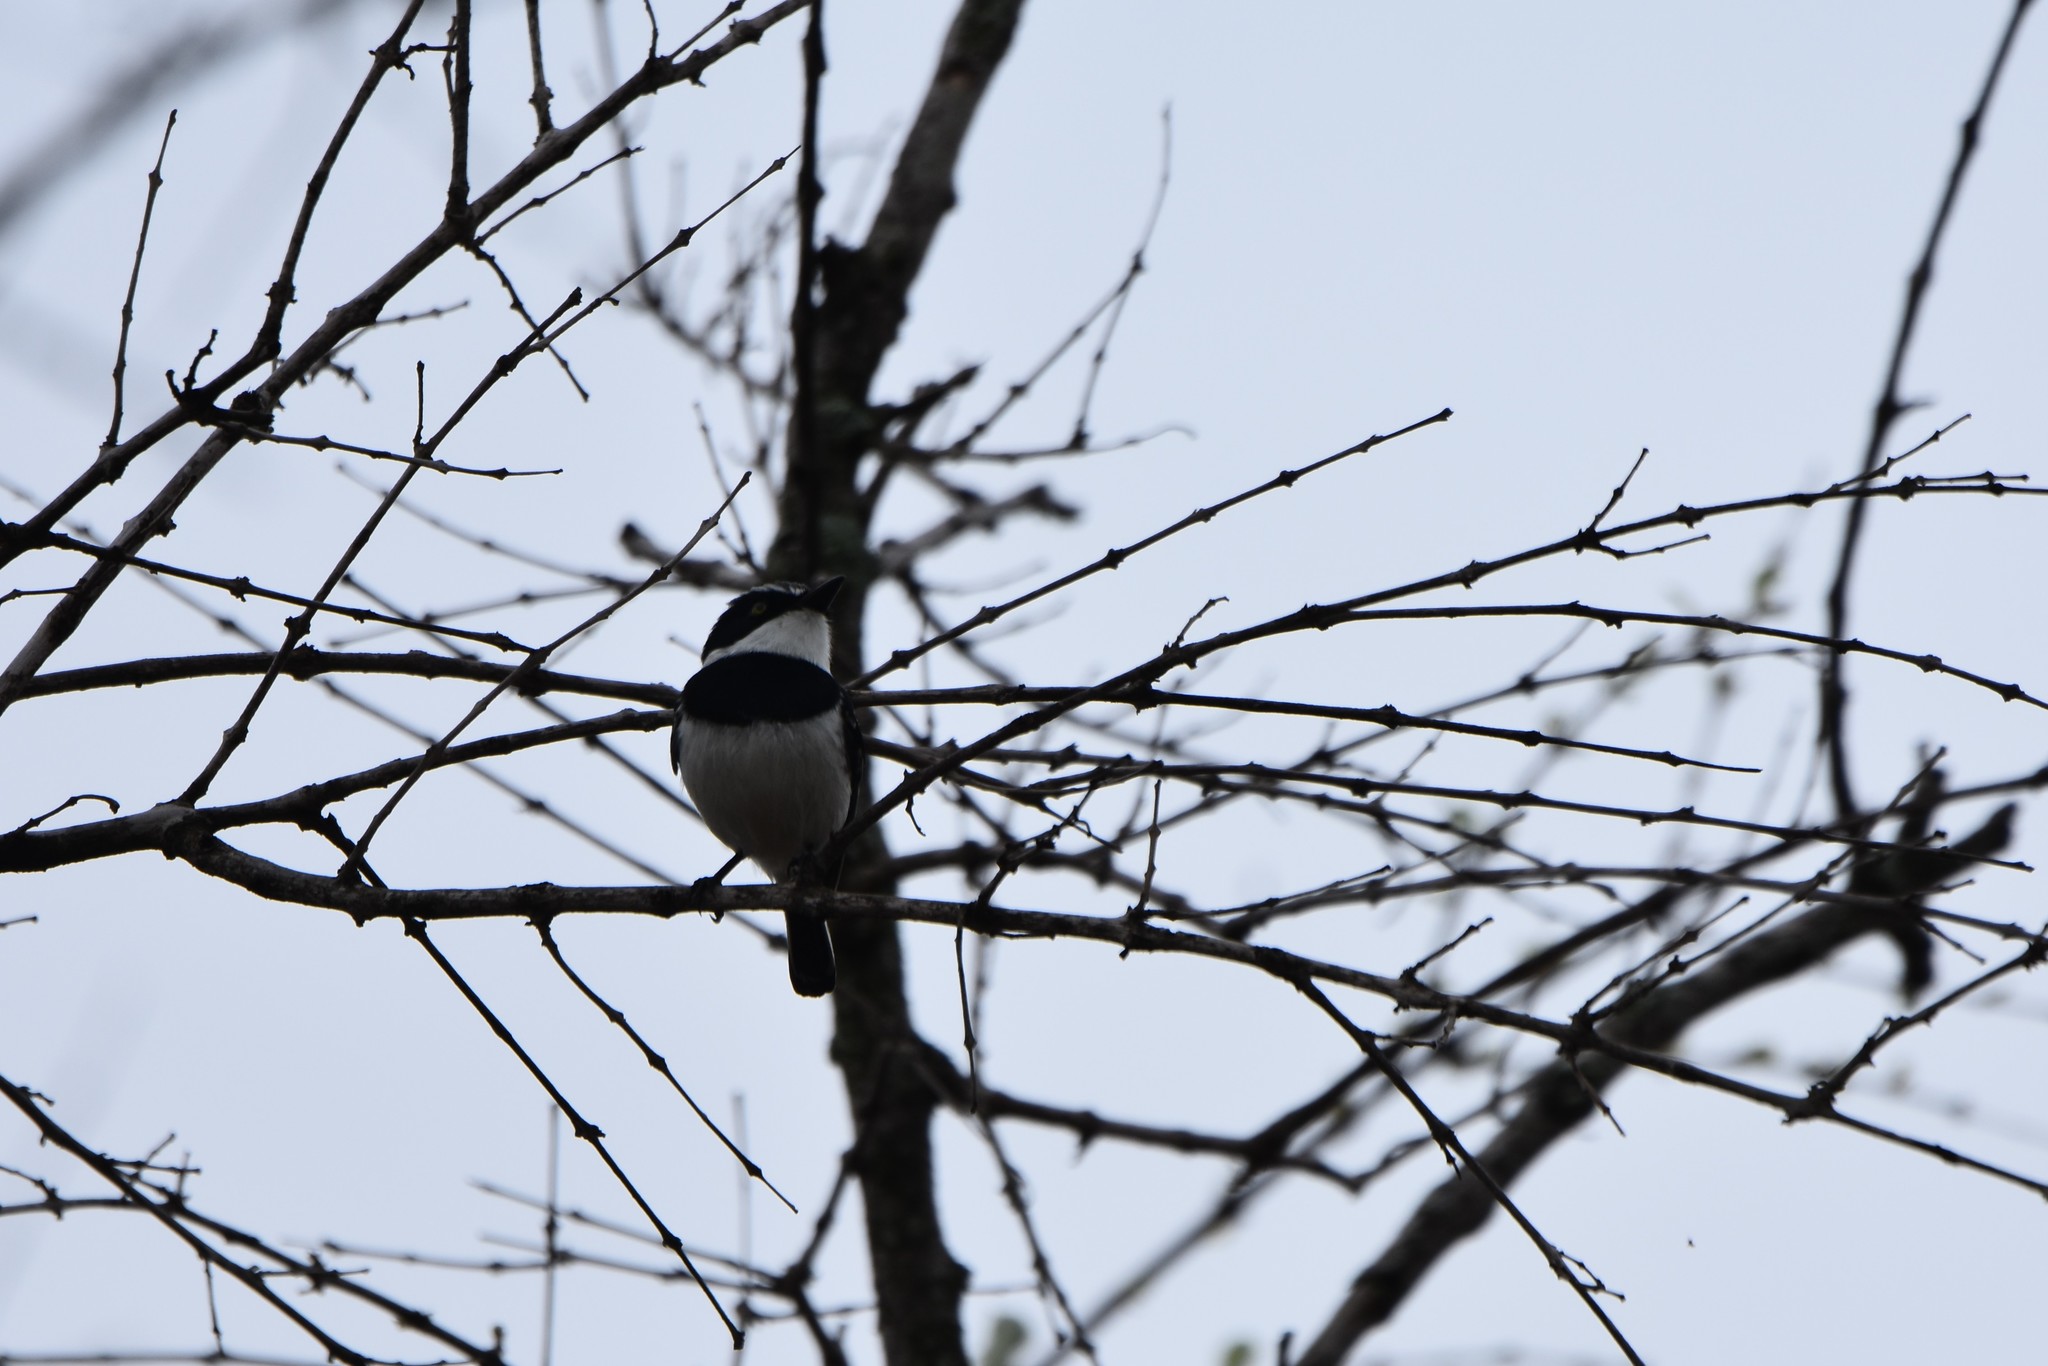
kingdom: Animalia
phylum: Chordata
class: Aves
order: Passeriformes
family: Platysteiridae
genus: Batis
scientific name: Batis molitor
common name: Chinspot batis
